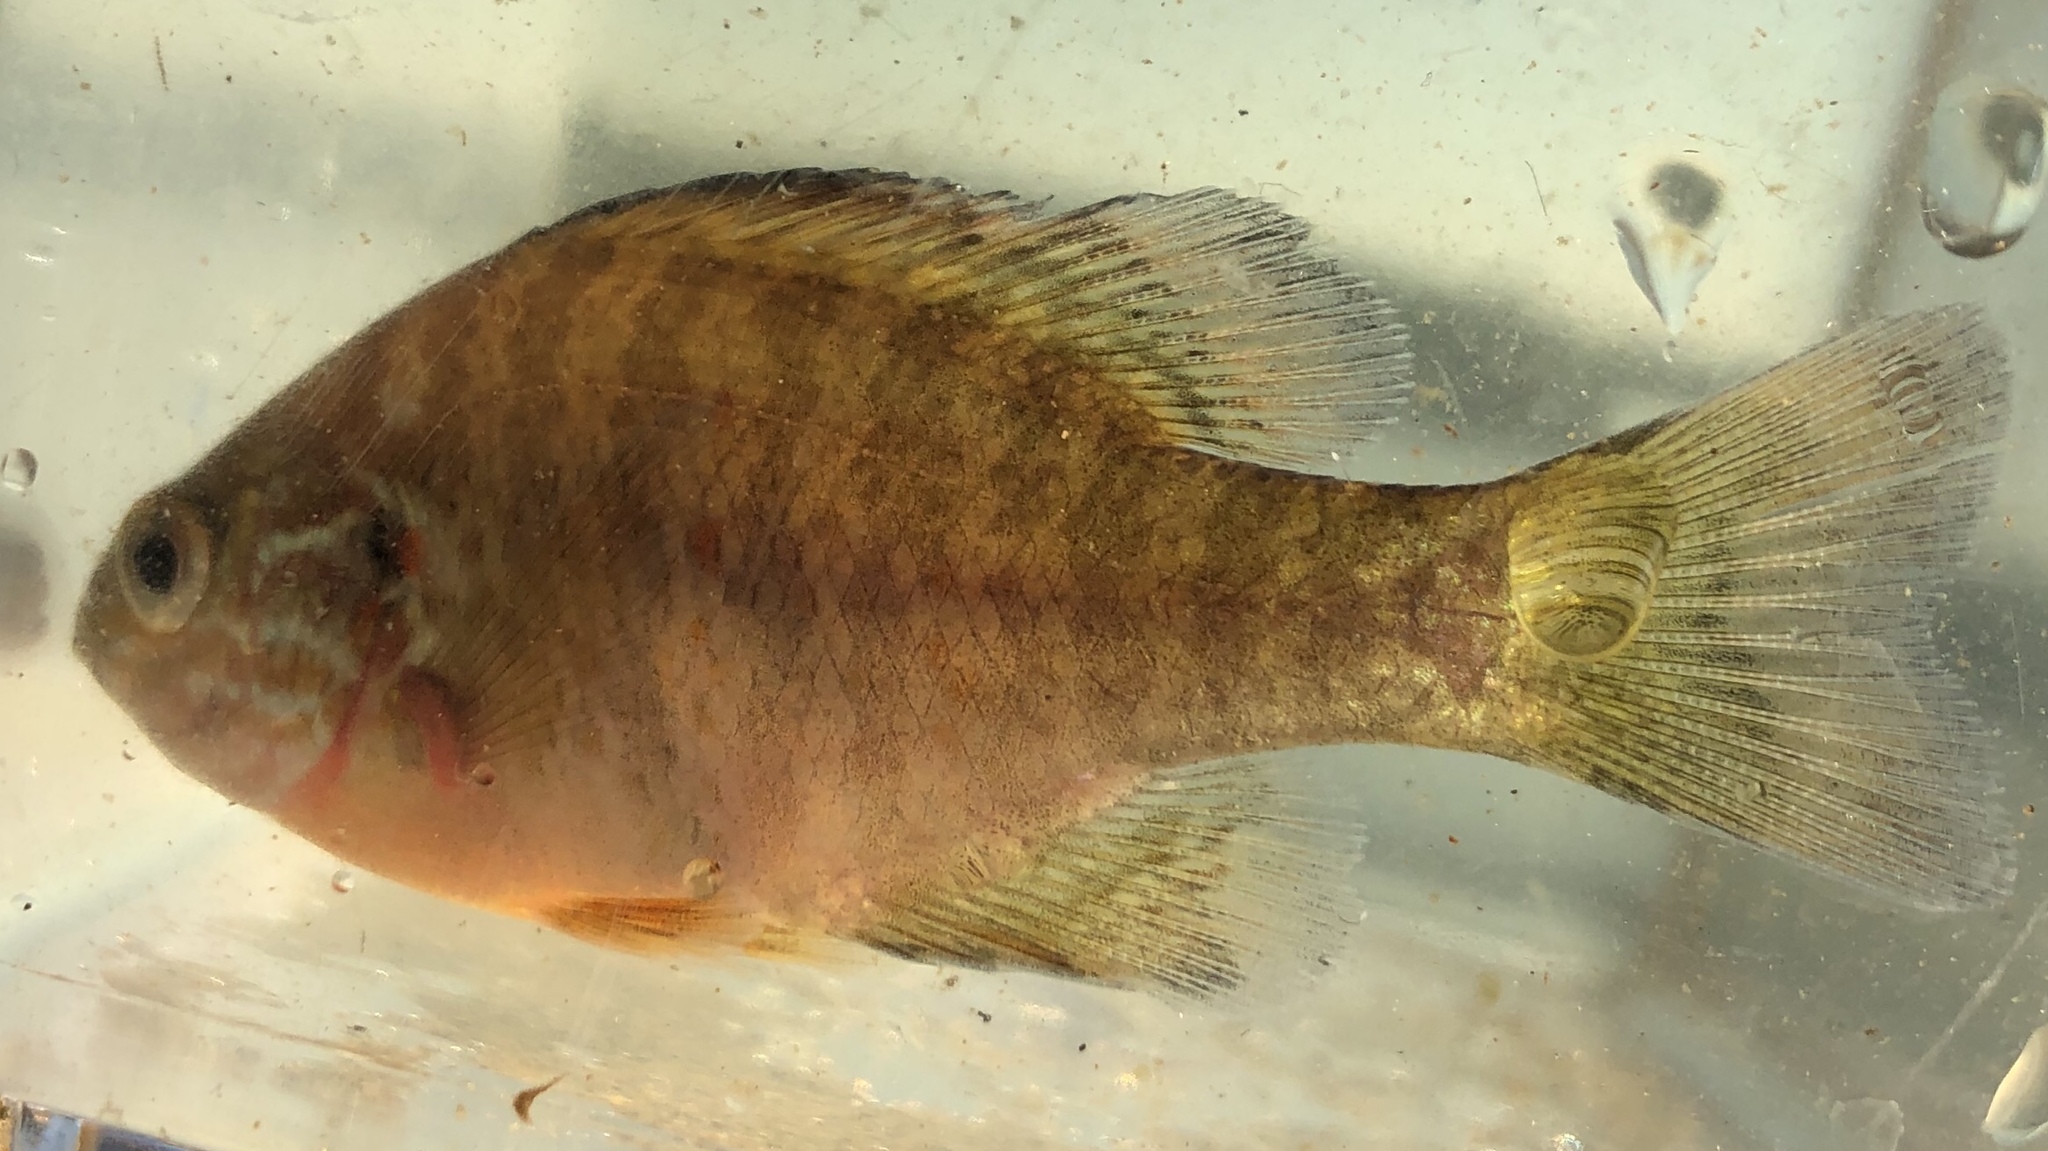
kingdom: Animalia
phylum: Chordata
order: Perciformes
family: Centrarchidae
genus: Lepomis
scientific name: Lepomis gibbosus
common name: Pumpkinseed
